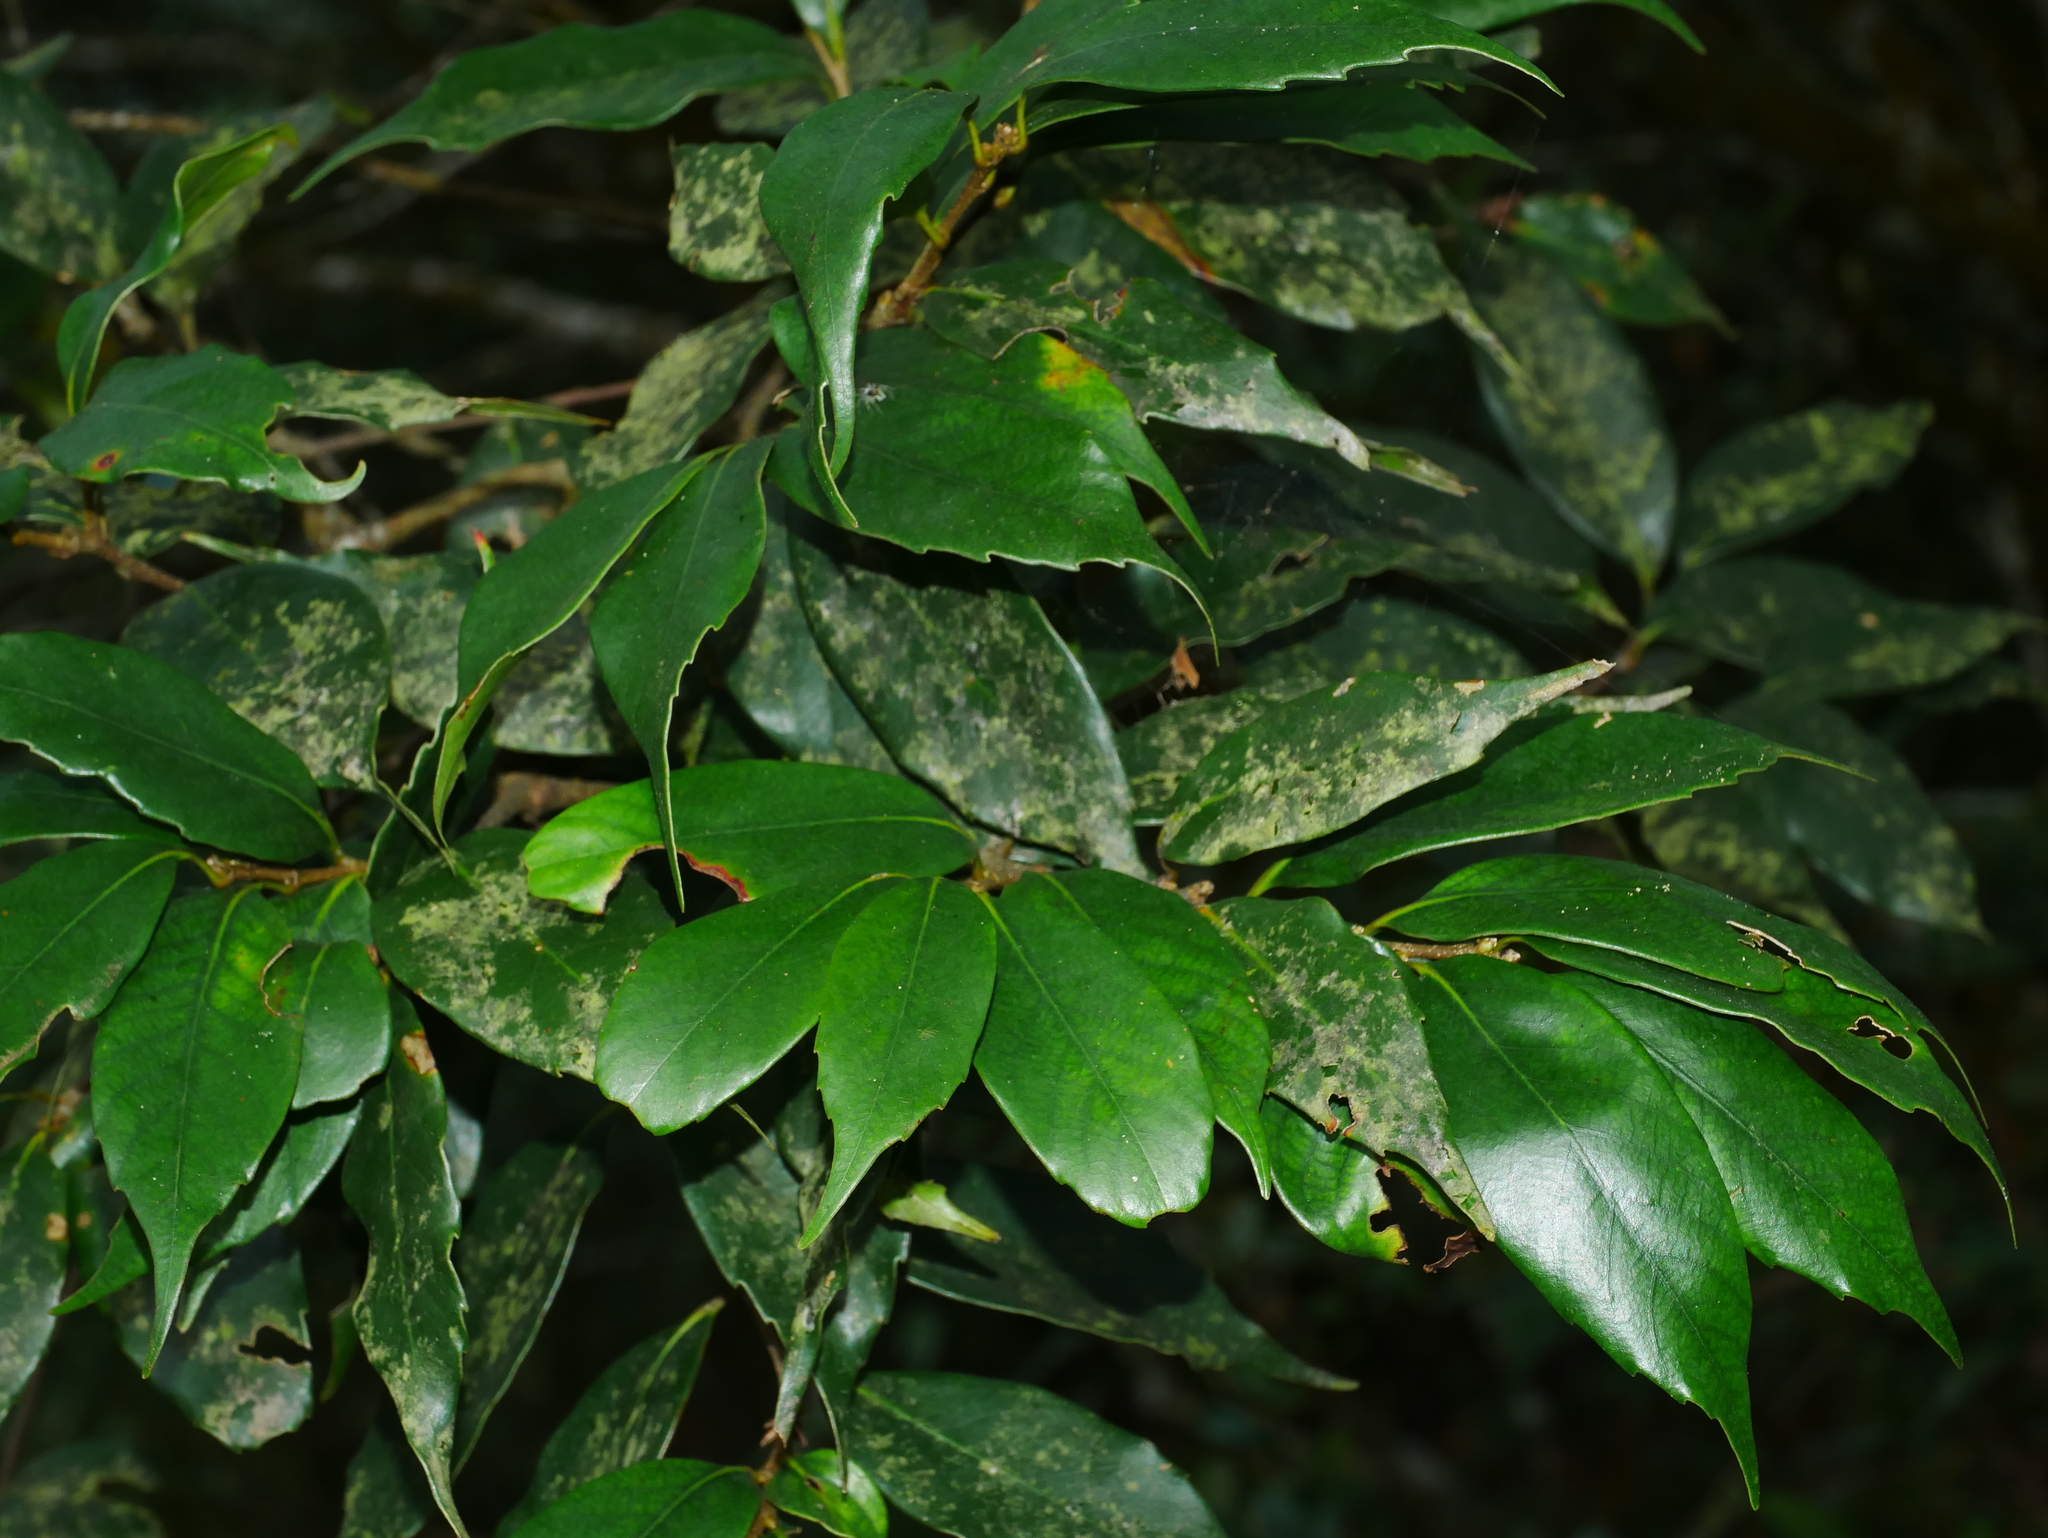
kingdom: Plantae
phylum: Tracheophyta
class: Magnoliopsida
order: Fagales
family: Fagaceae
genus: Castanopsis
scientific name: Castanopsis kawakamii
